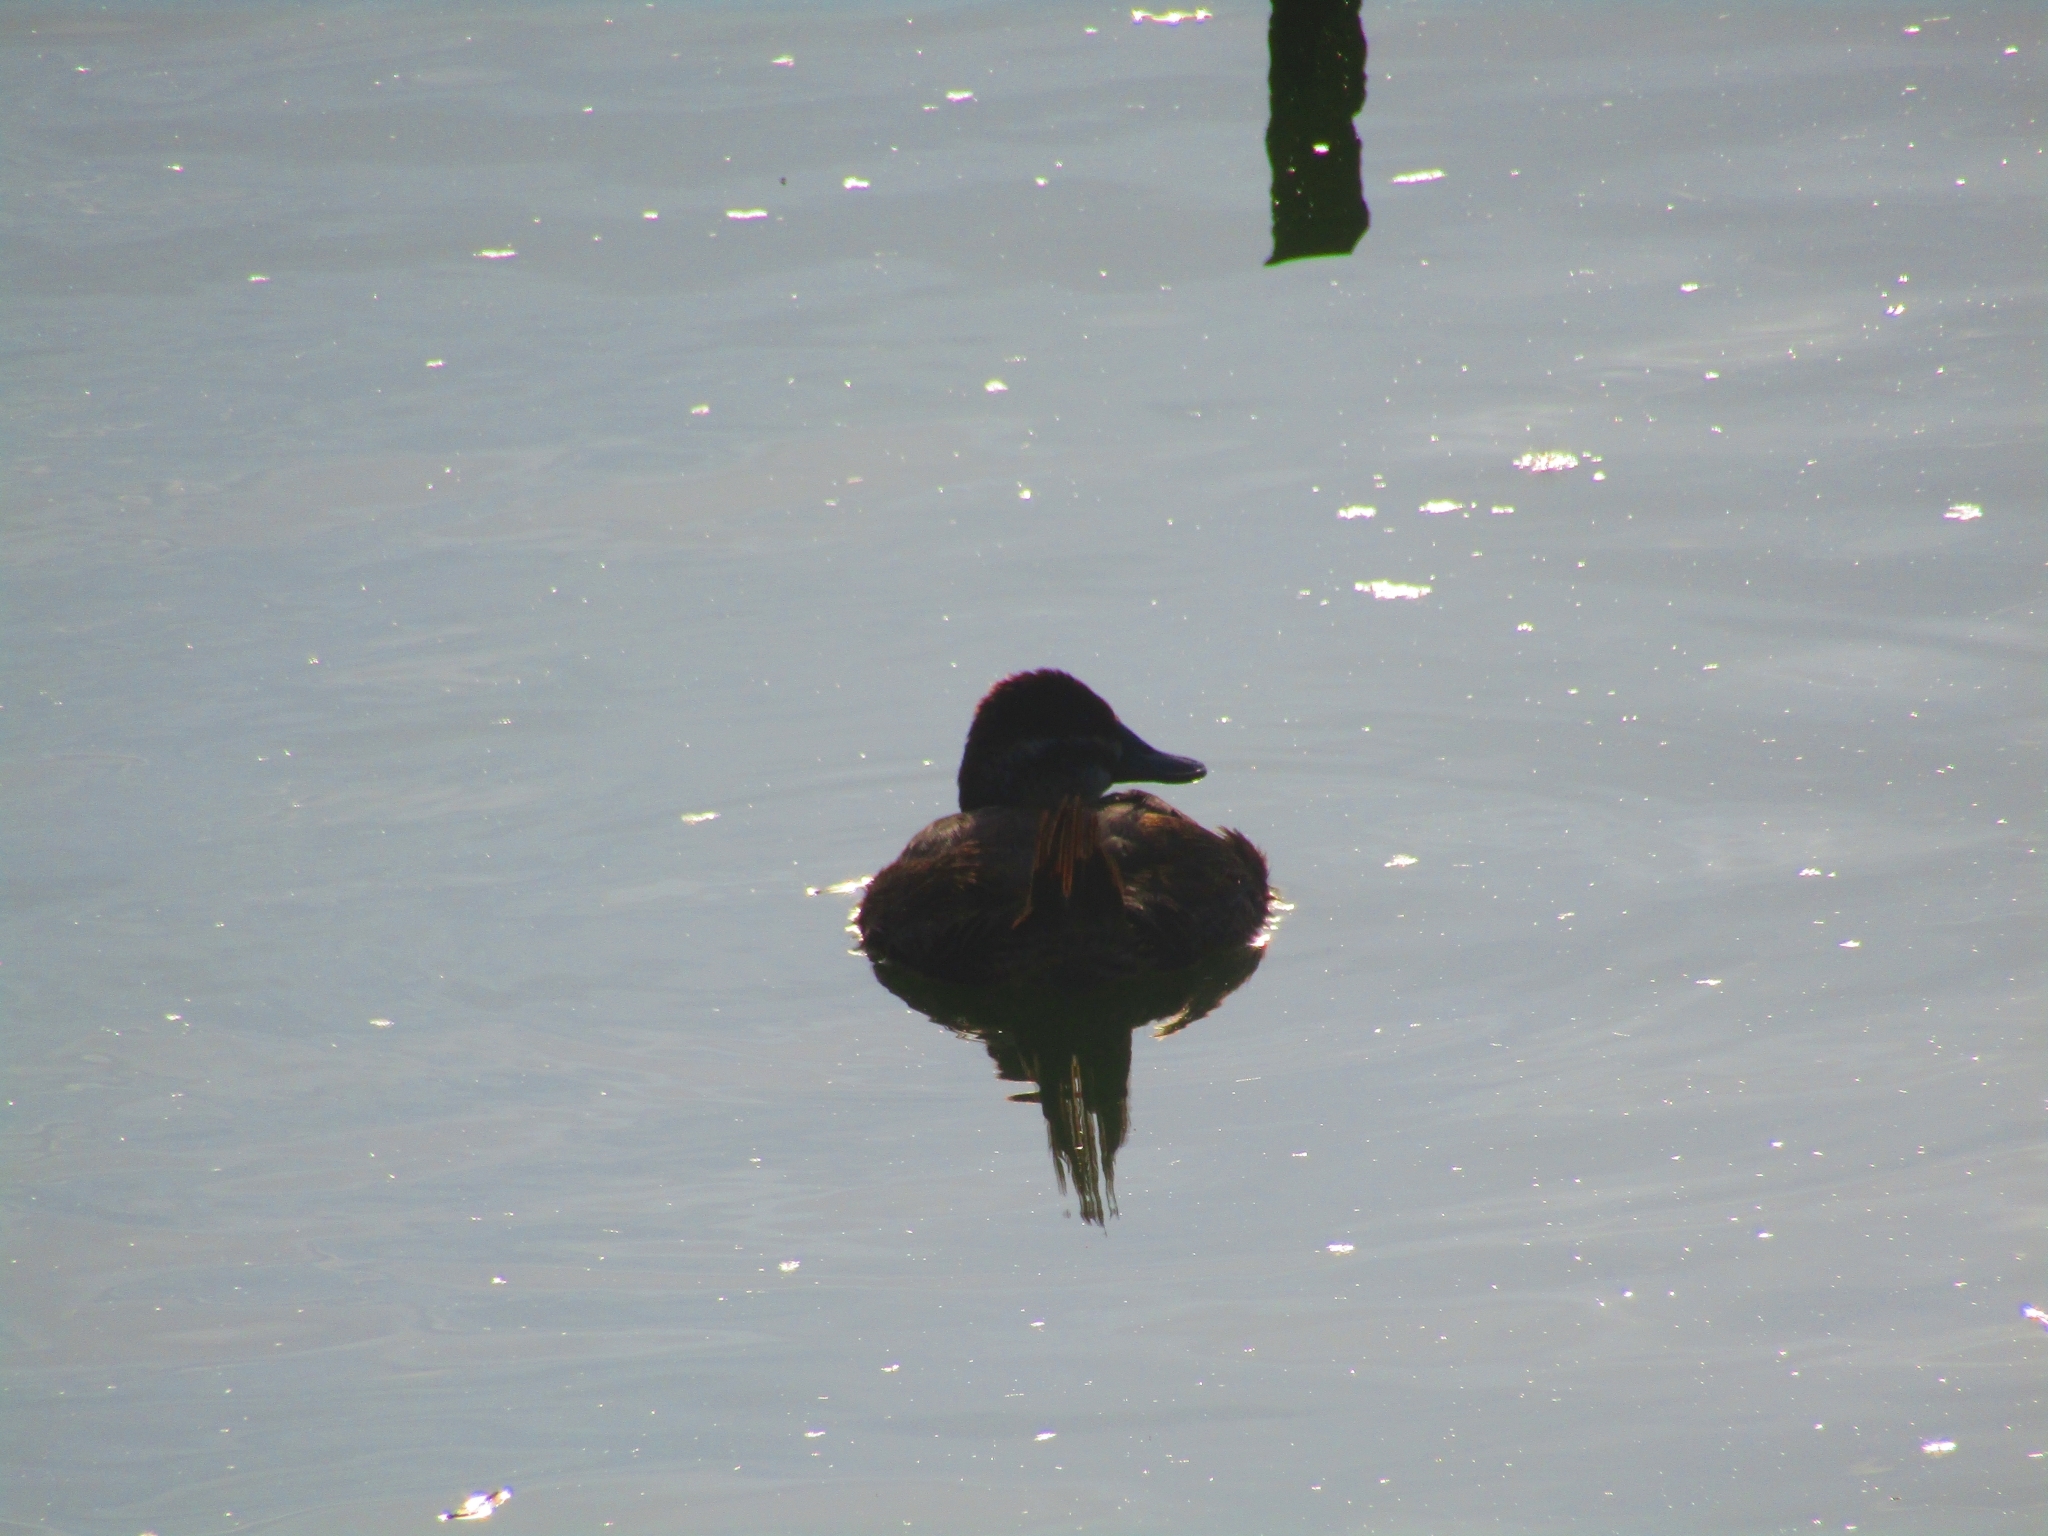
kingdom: Animalia
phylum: Chordata
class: Aves
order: Anseriformes
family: Anatidae
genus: Oxyura
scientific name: Oxyura vittata
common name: Lake duck
